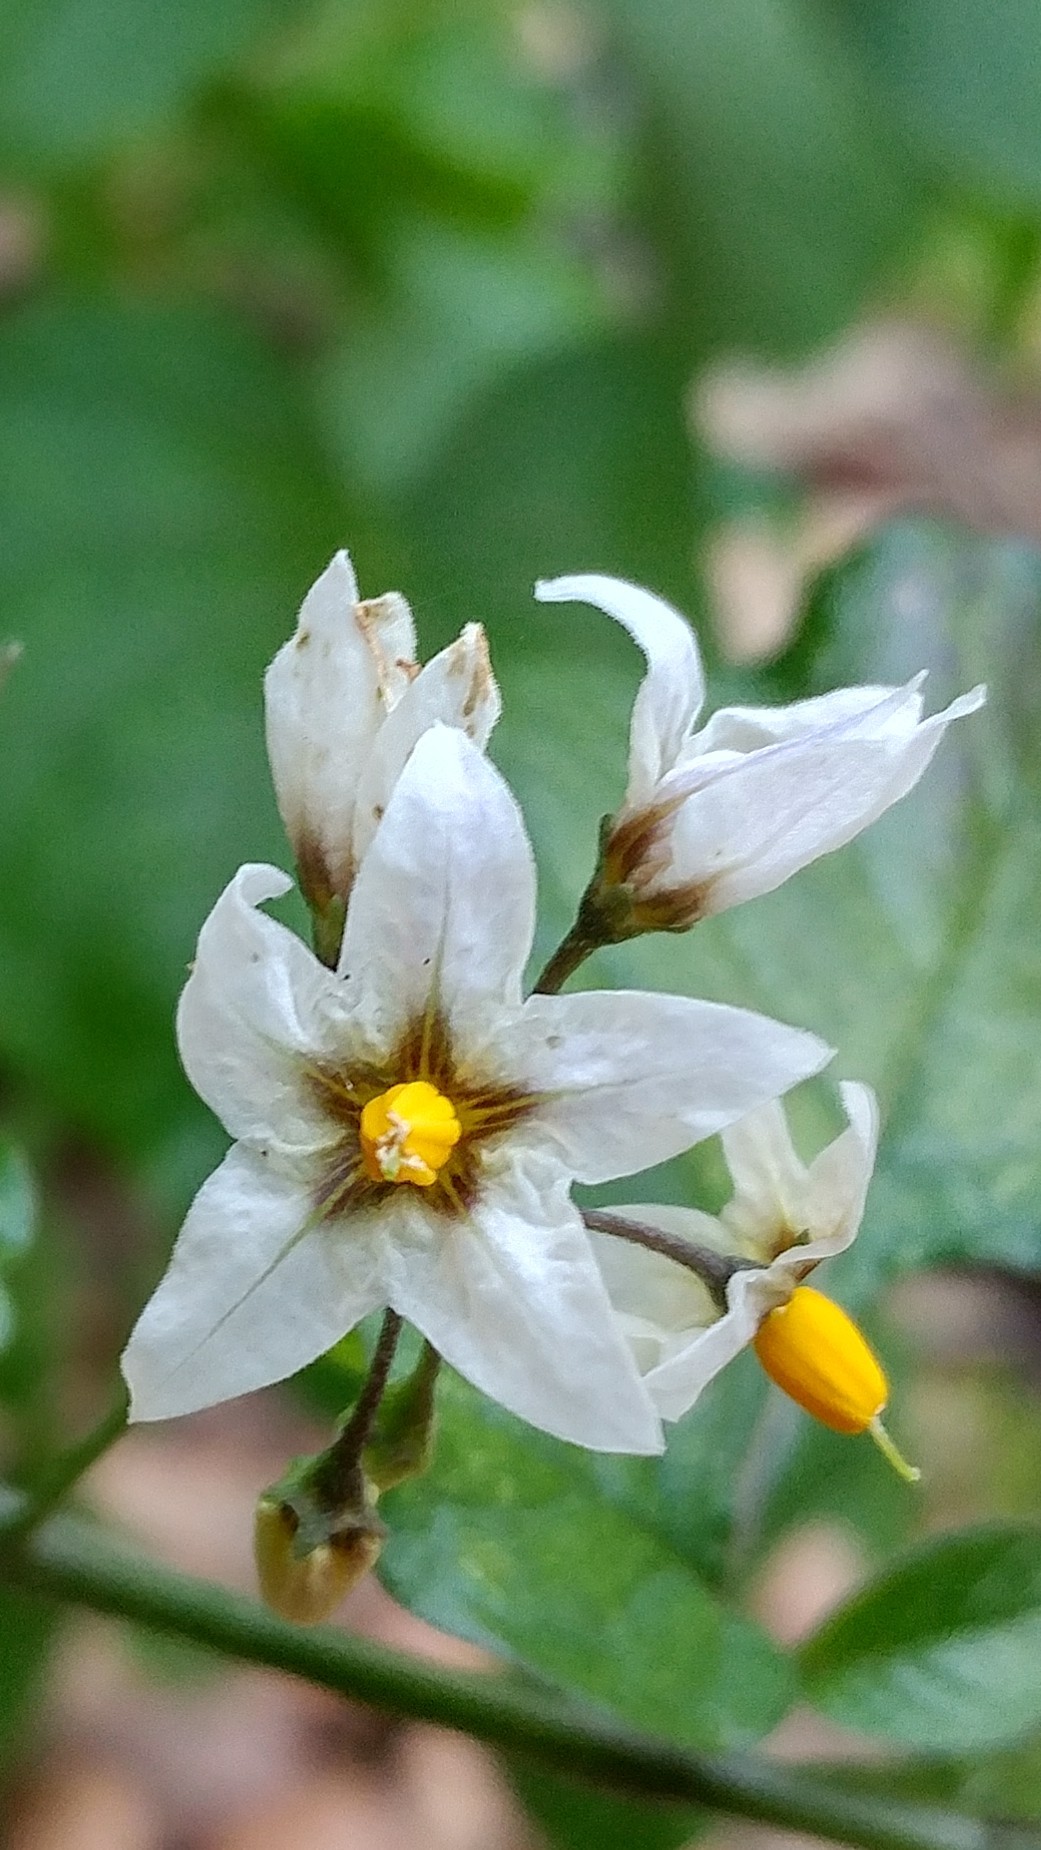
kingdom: Plantae
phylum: Tracheophyta
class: Magnoliopsida
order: Solanales
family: Solanaceae
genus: Solanum
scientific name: Solanum douglasii
